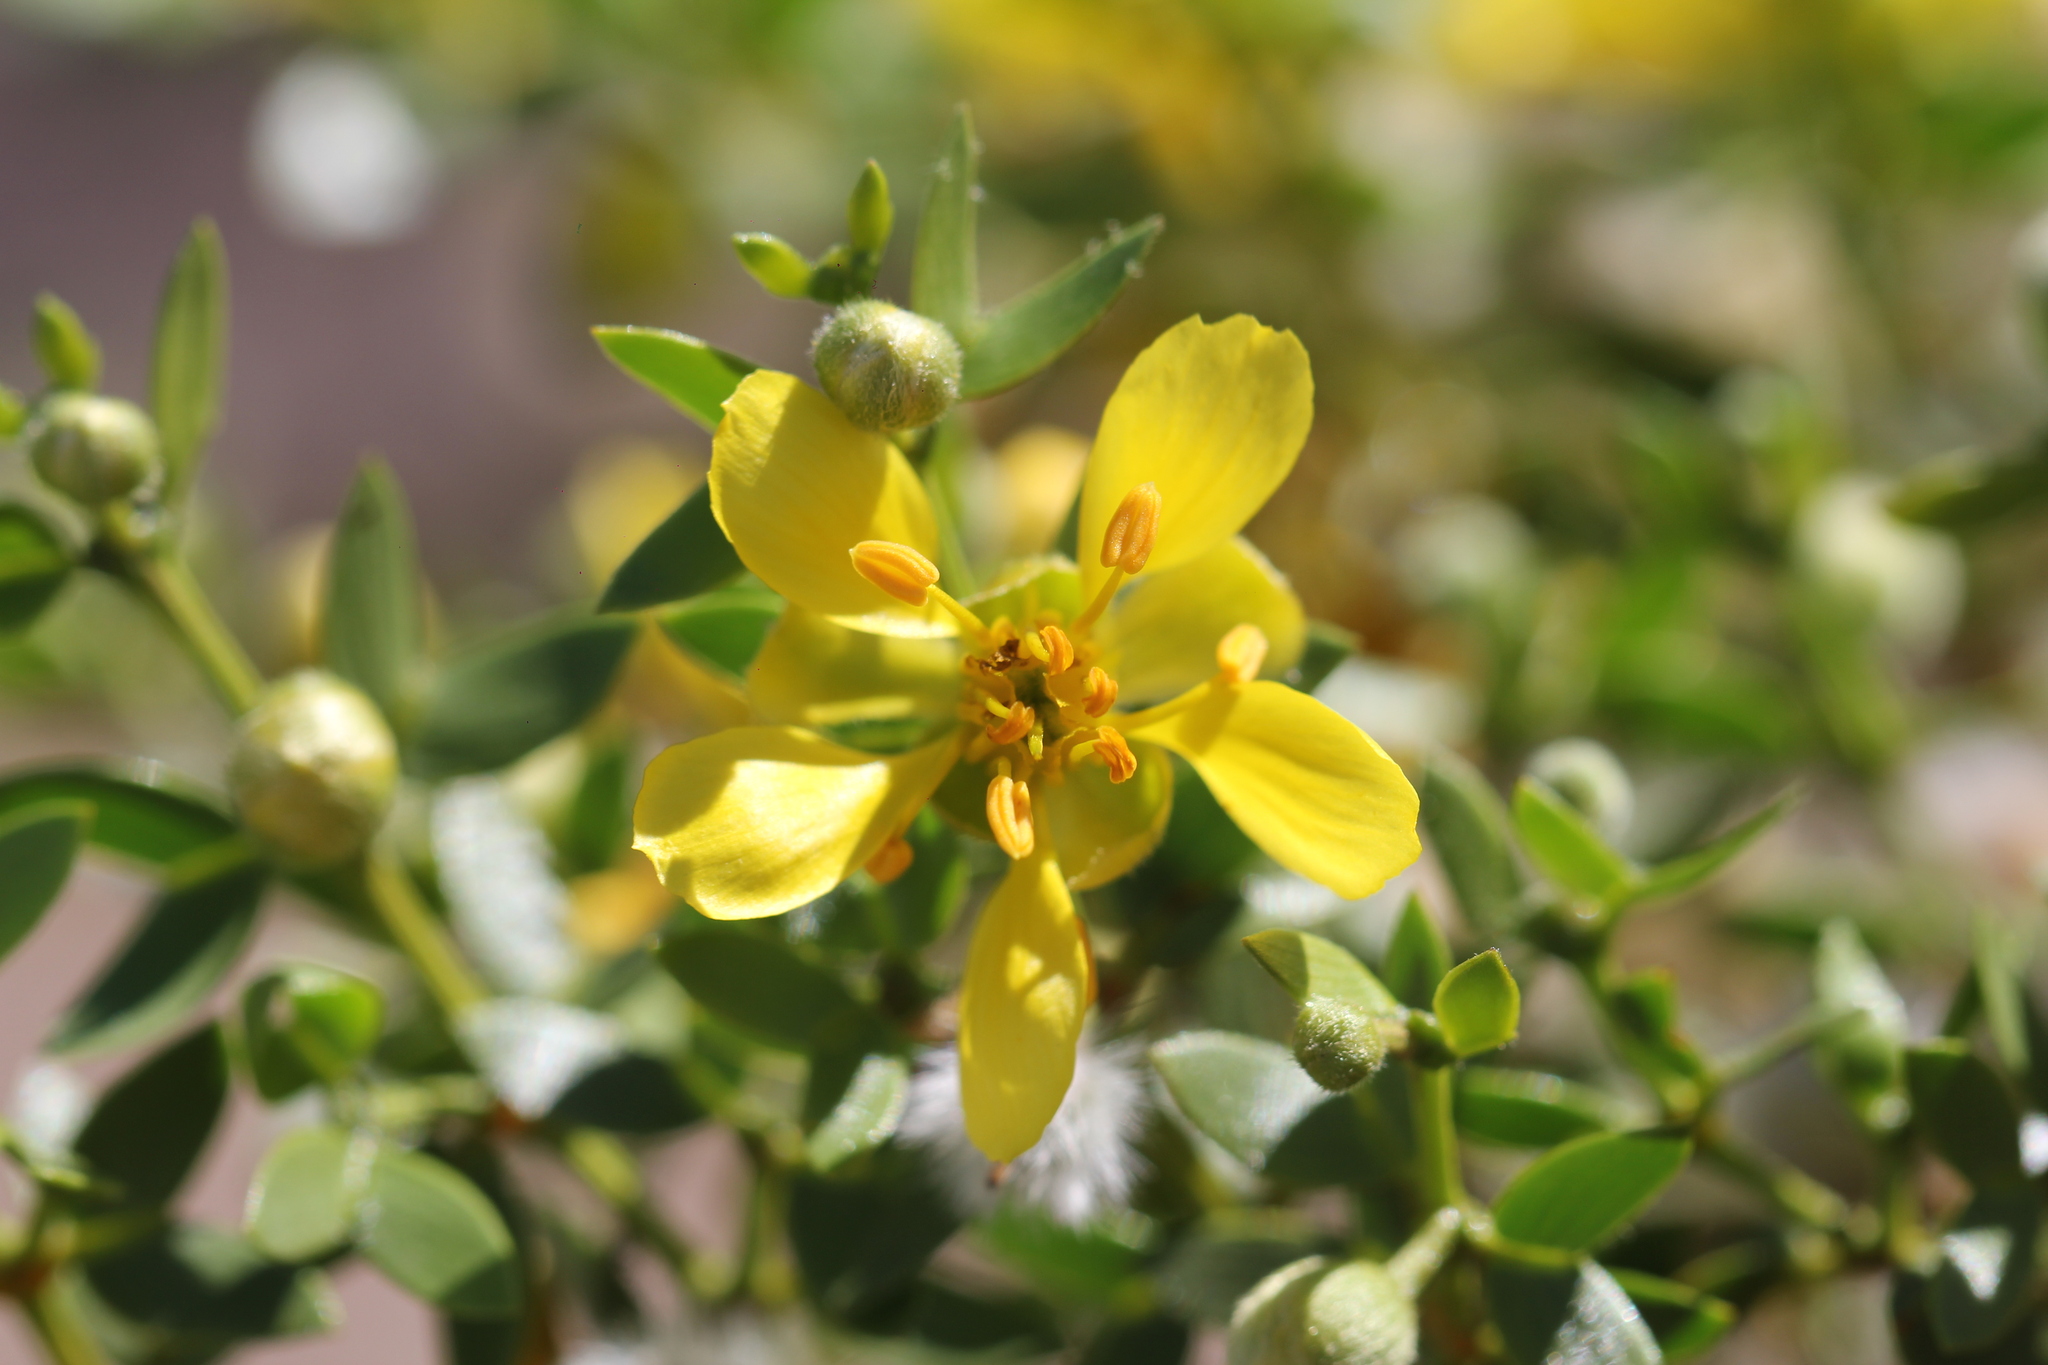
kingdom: Plantae
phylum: Tracheophyta
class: Magnoliopsida
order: Zygophyllales
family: Zygophyllaceae
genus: Larrea
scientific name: Larrea divaricata
